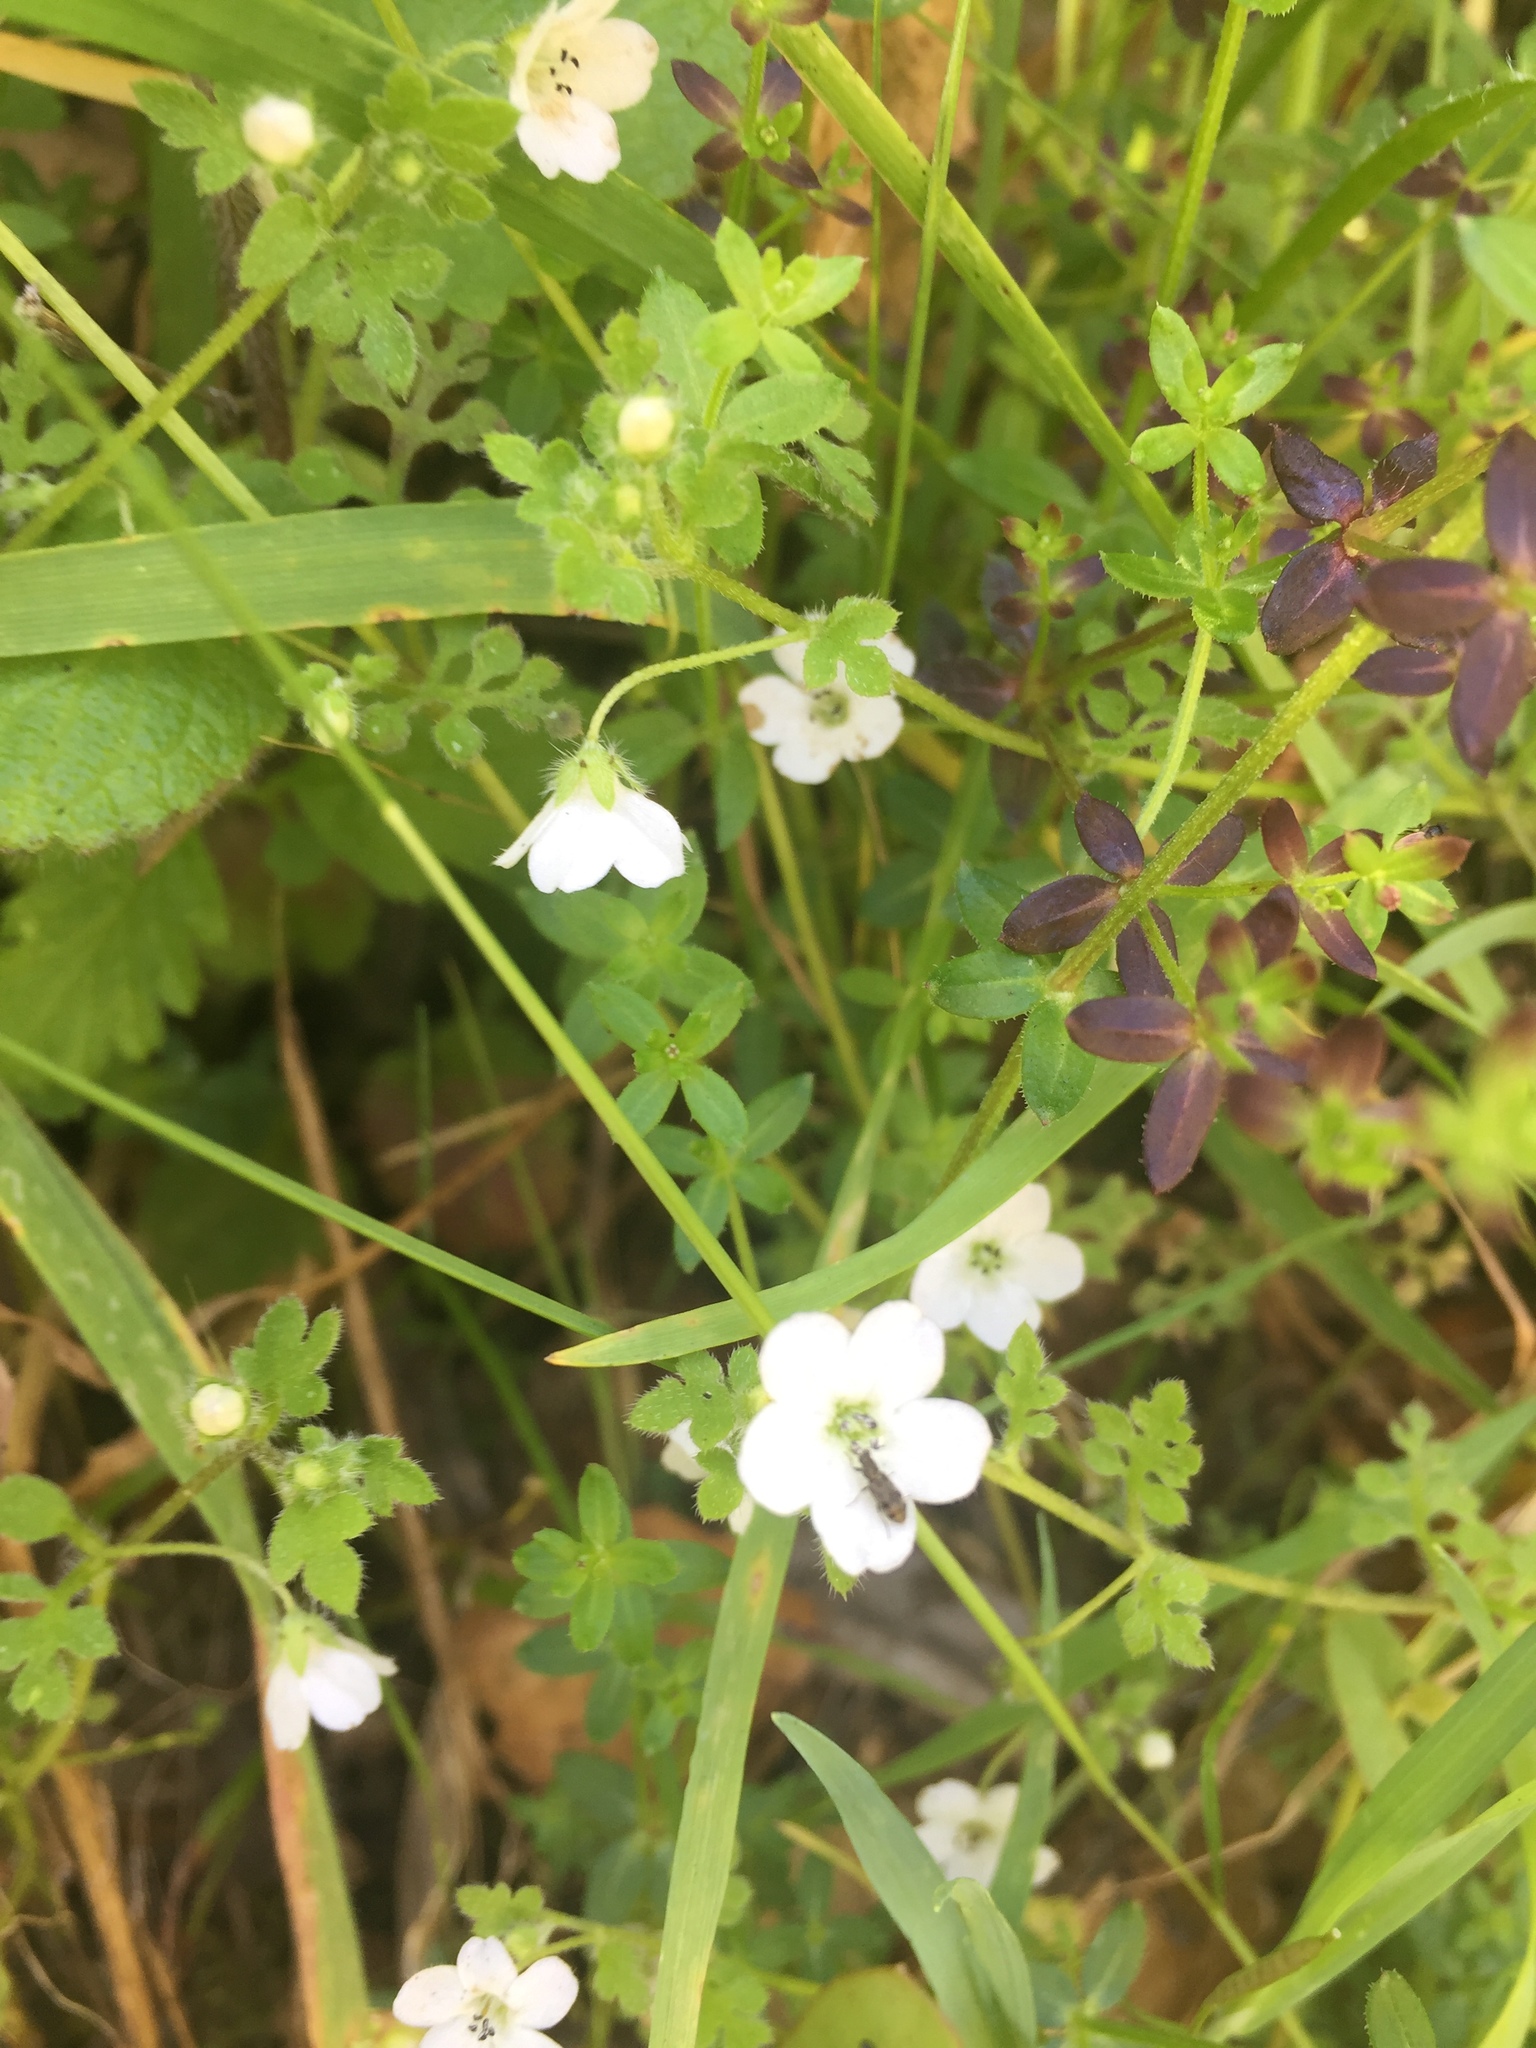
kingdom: Plantae
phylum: Tracheophyta
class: Magnoliopsida
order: Boraginales
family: Hydrophyllaceae
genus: Nemophila
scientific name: Nemophila heterophylla
